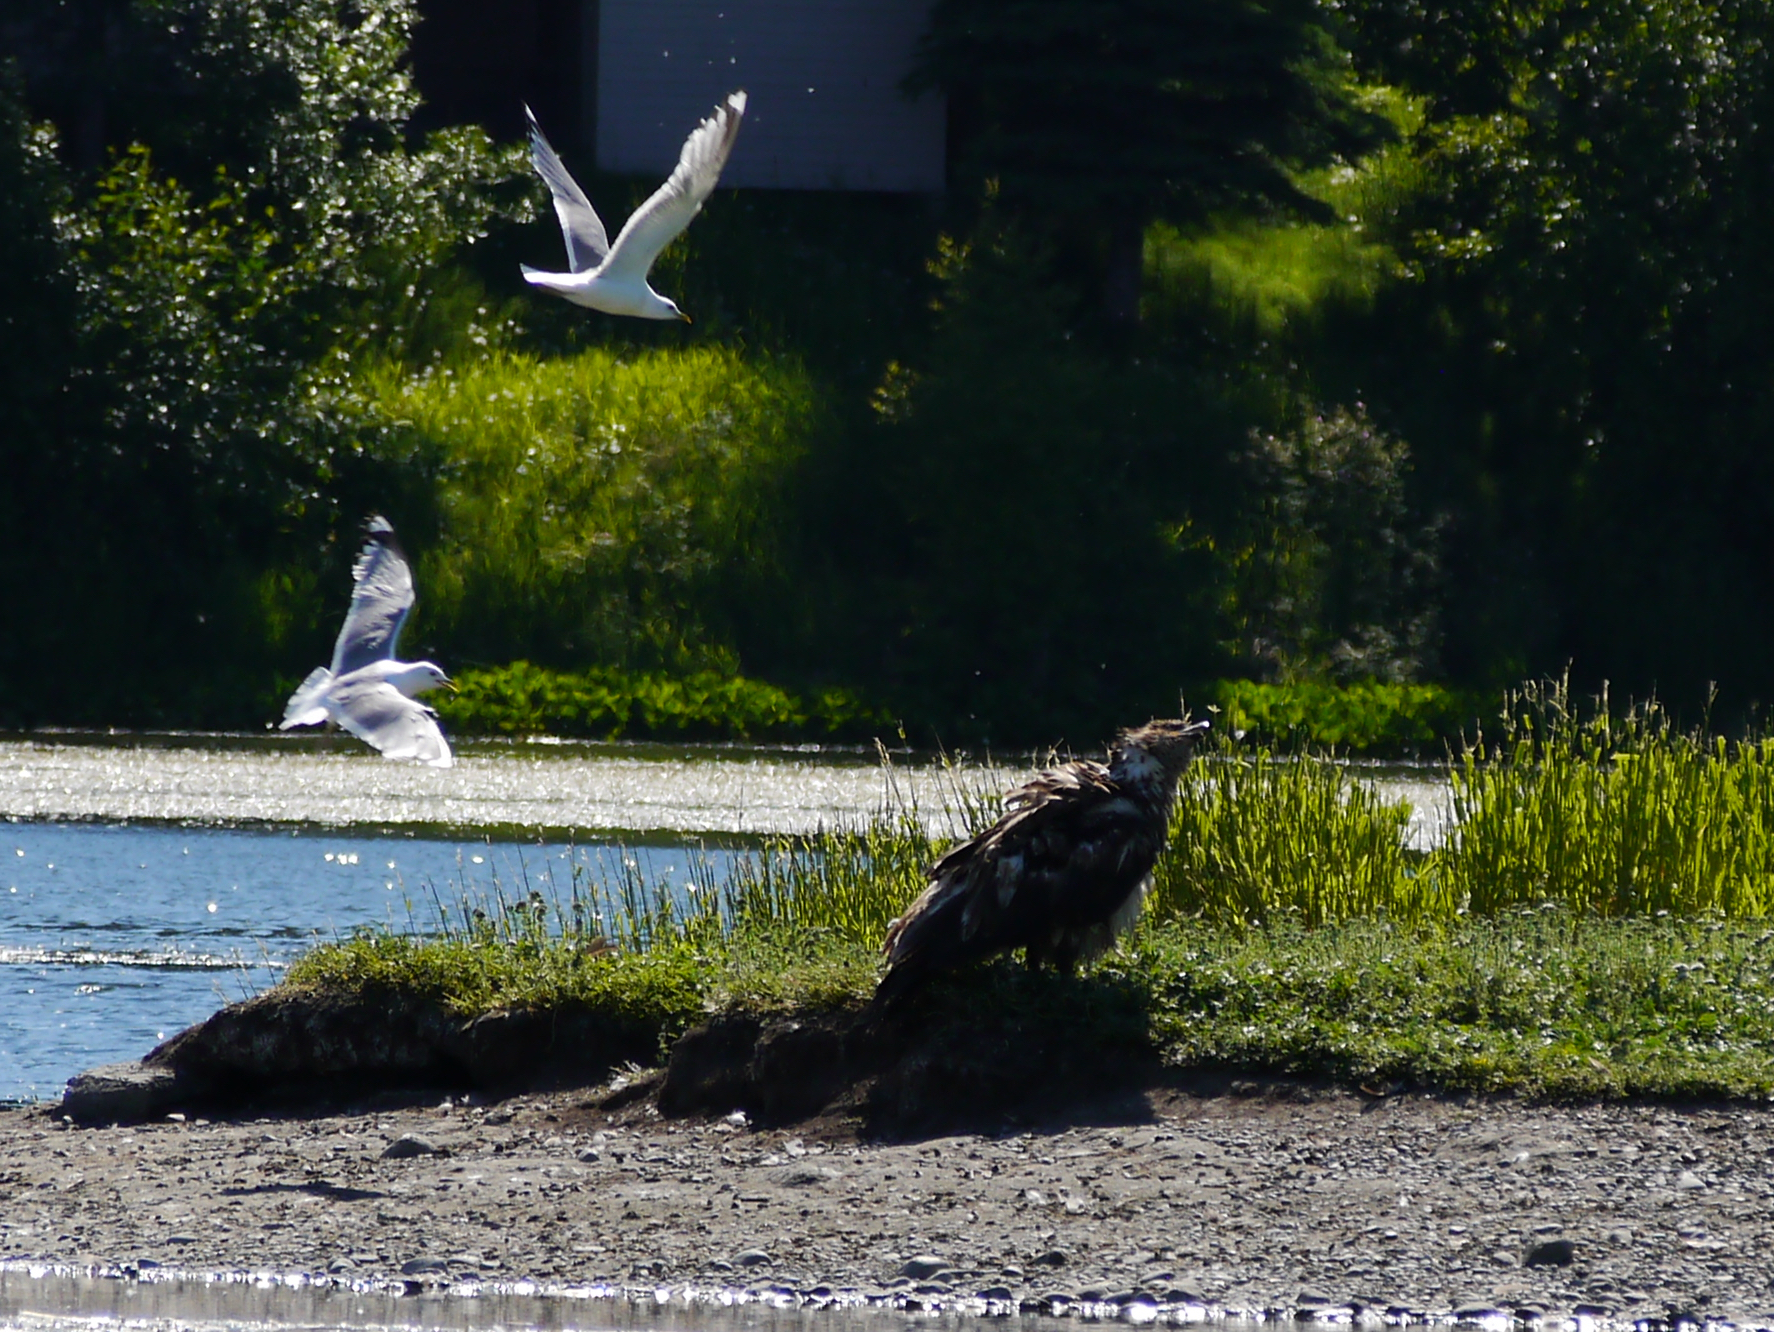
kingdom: Animalia
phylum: Chordata
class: Aves
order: Accipitriformes
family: Accipitridae
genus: Haliaeetus
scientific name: Haliaeetus leucocephalus
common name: Bald eagle
